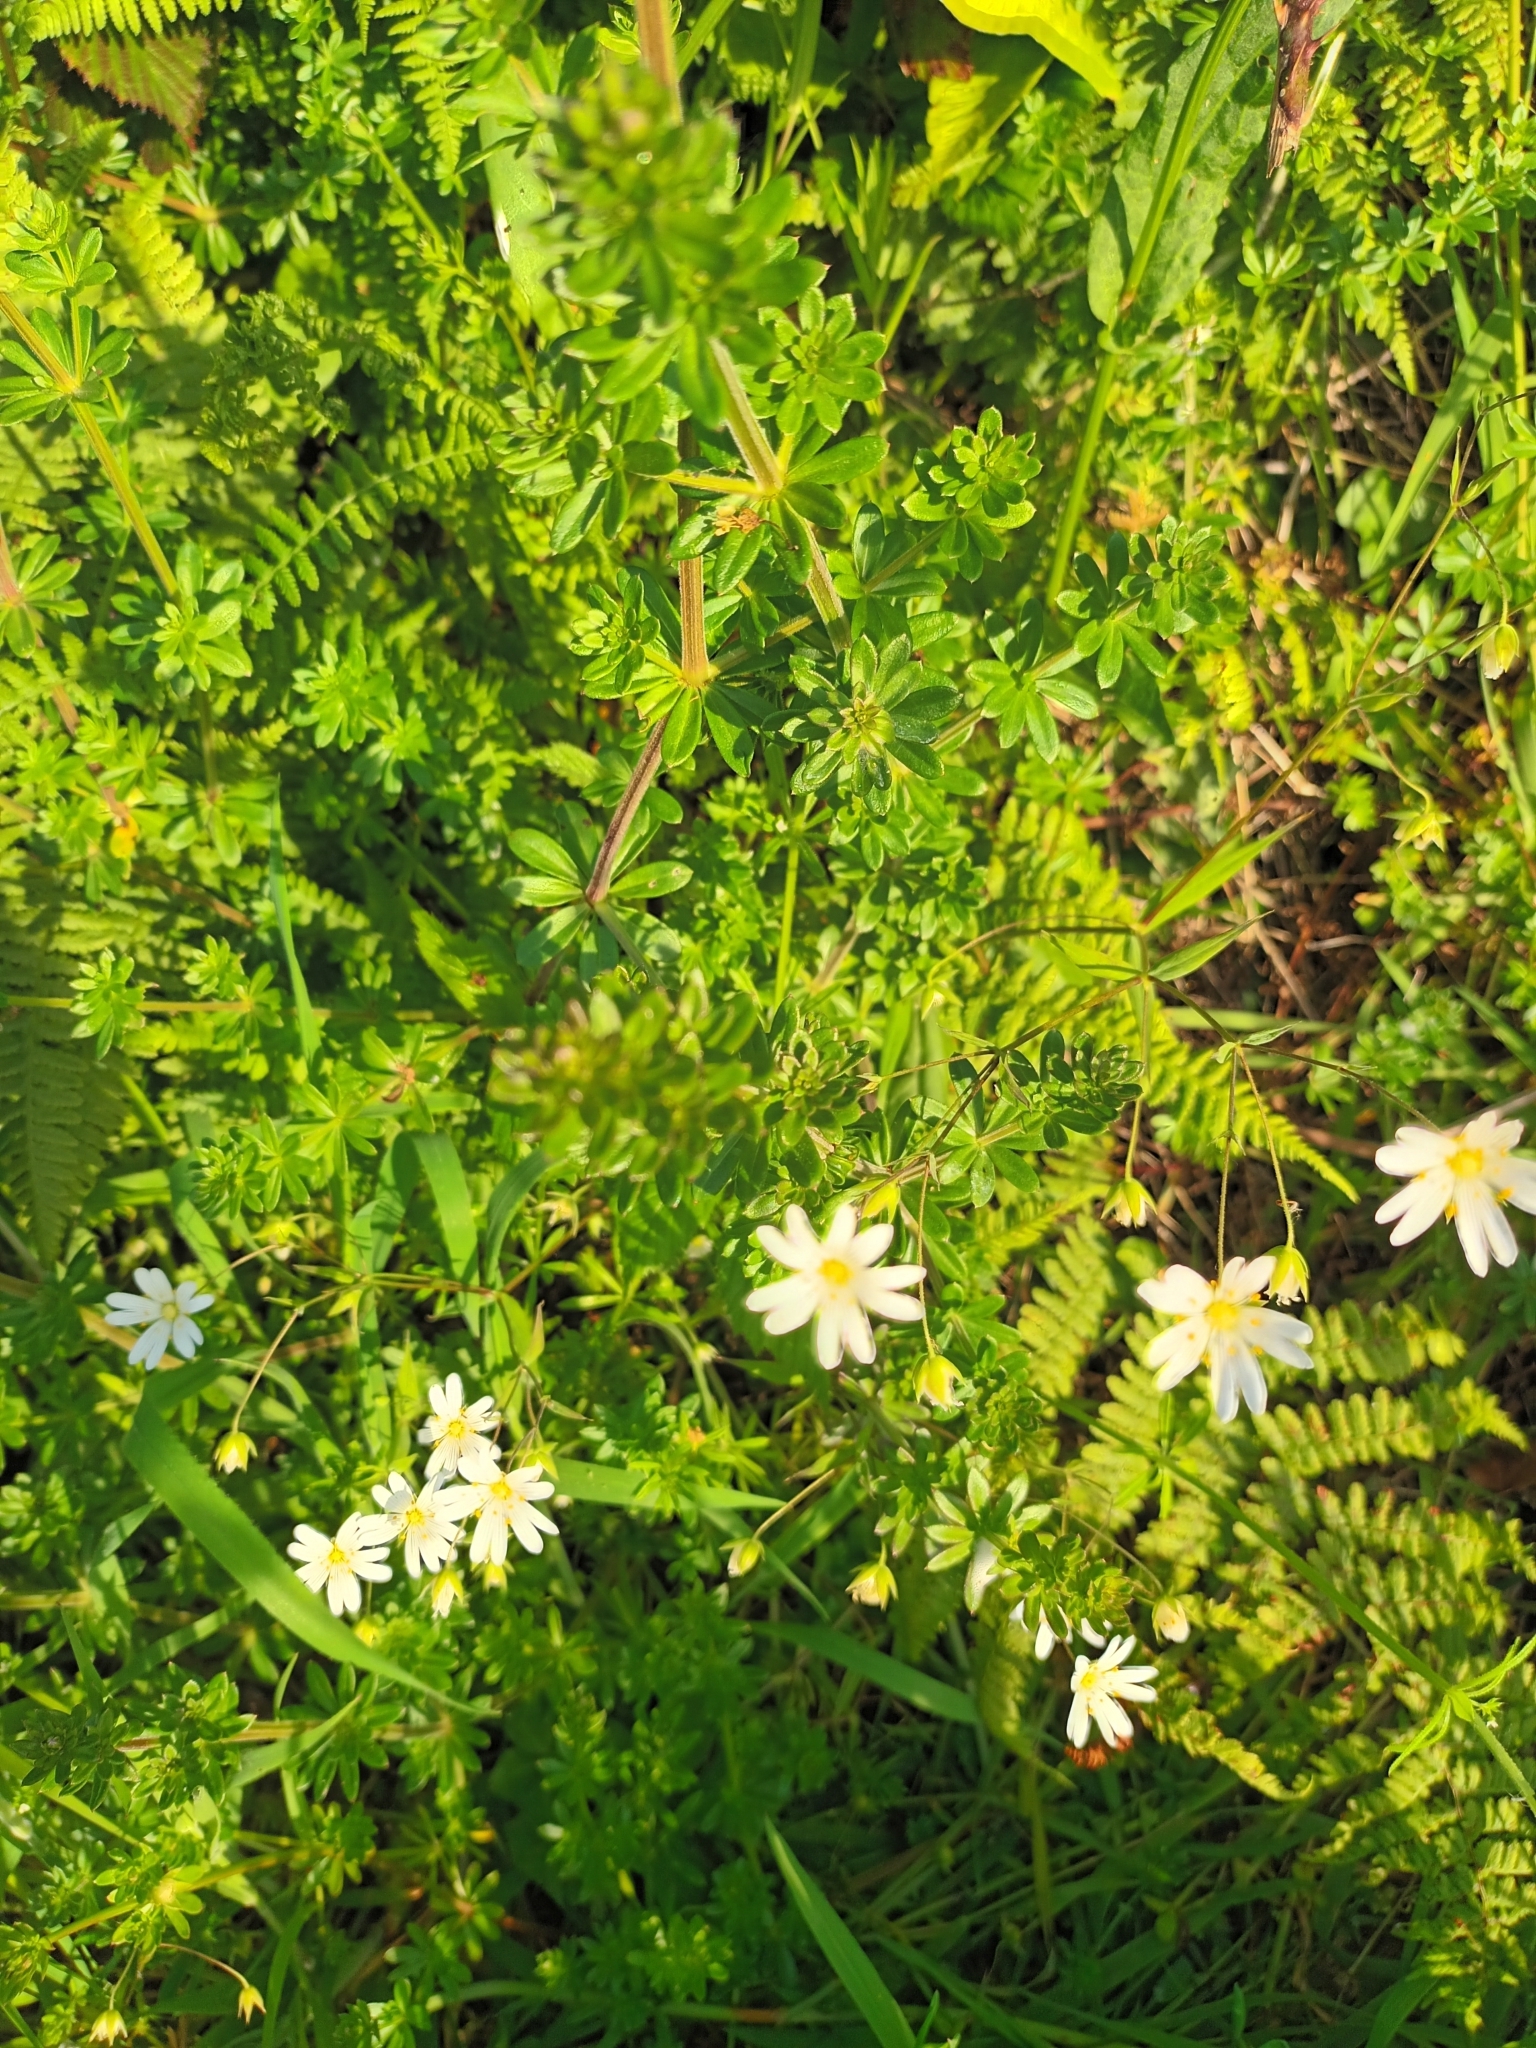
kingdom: Plantae
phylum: Tracheophyta
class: Magnoliopsida
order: Caryophyllales
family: Caryophyllaceae
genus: Rabelera
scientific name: Rabelera holostea
